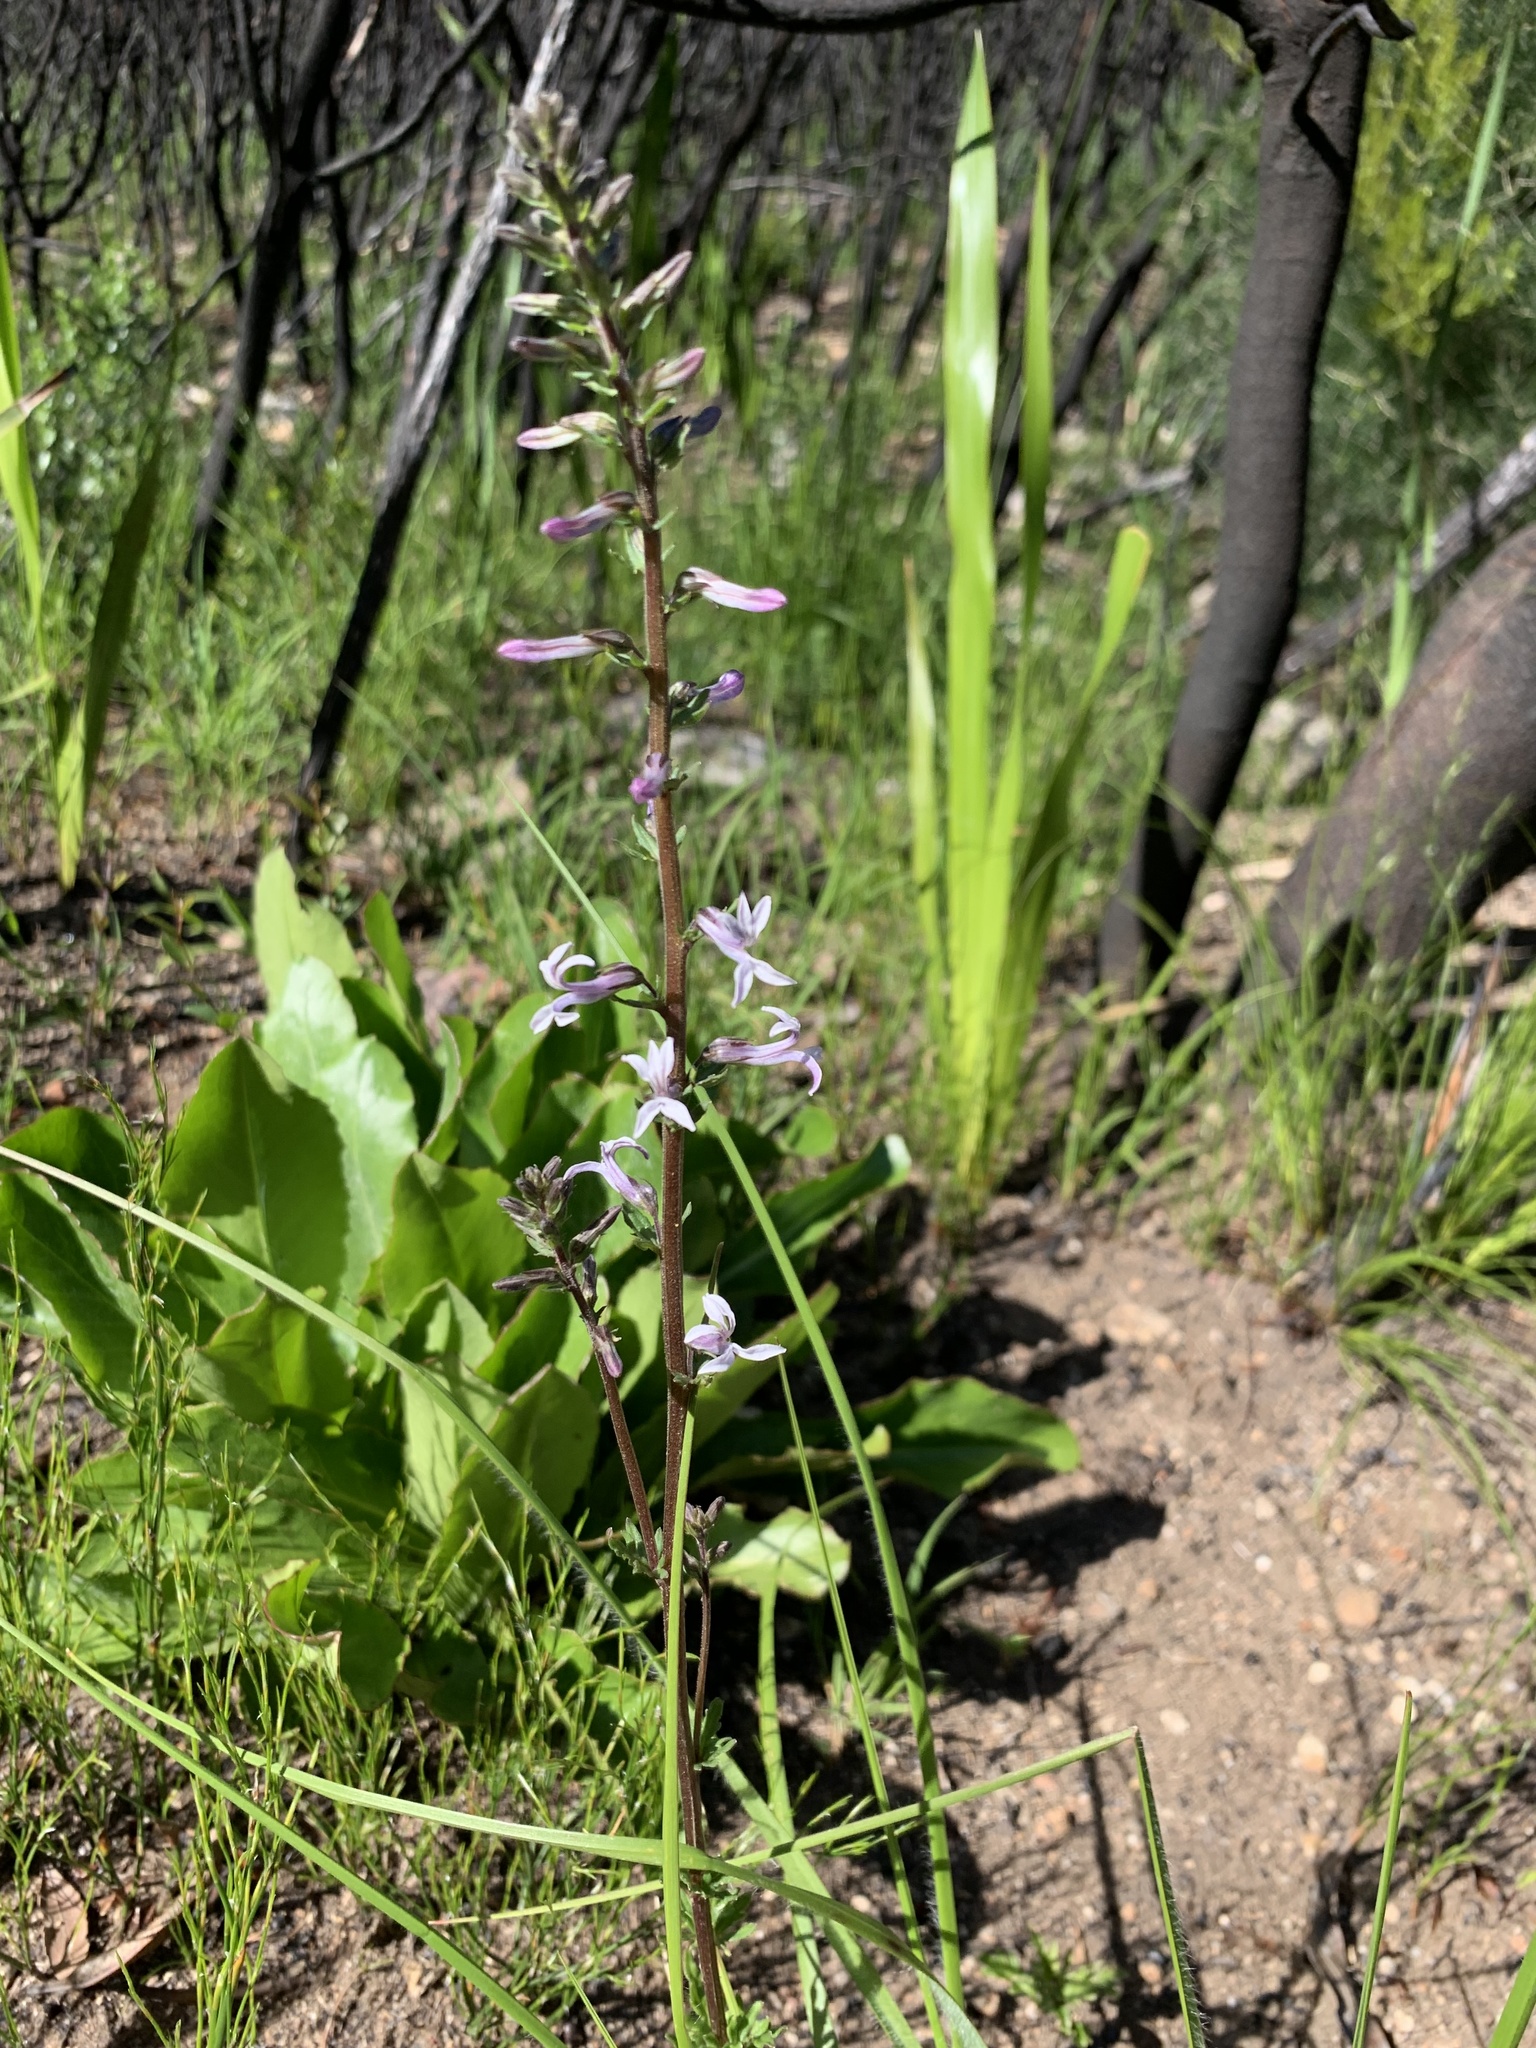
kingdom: Plantae
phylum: Tracheophyta
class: Magnoliopsida
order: Asterales
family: Campanulaceae
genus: Cyphia
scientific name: Cyphia bulbosa
